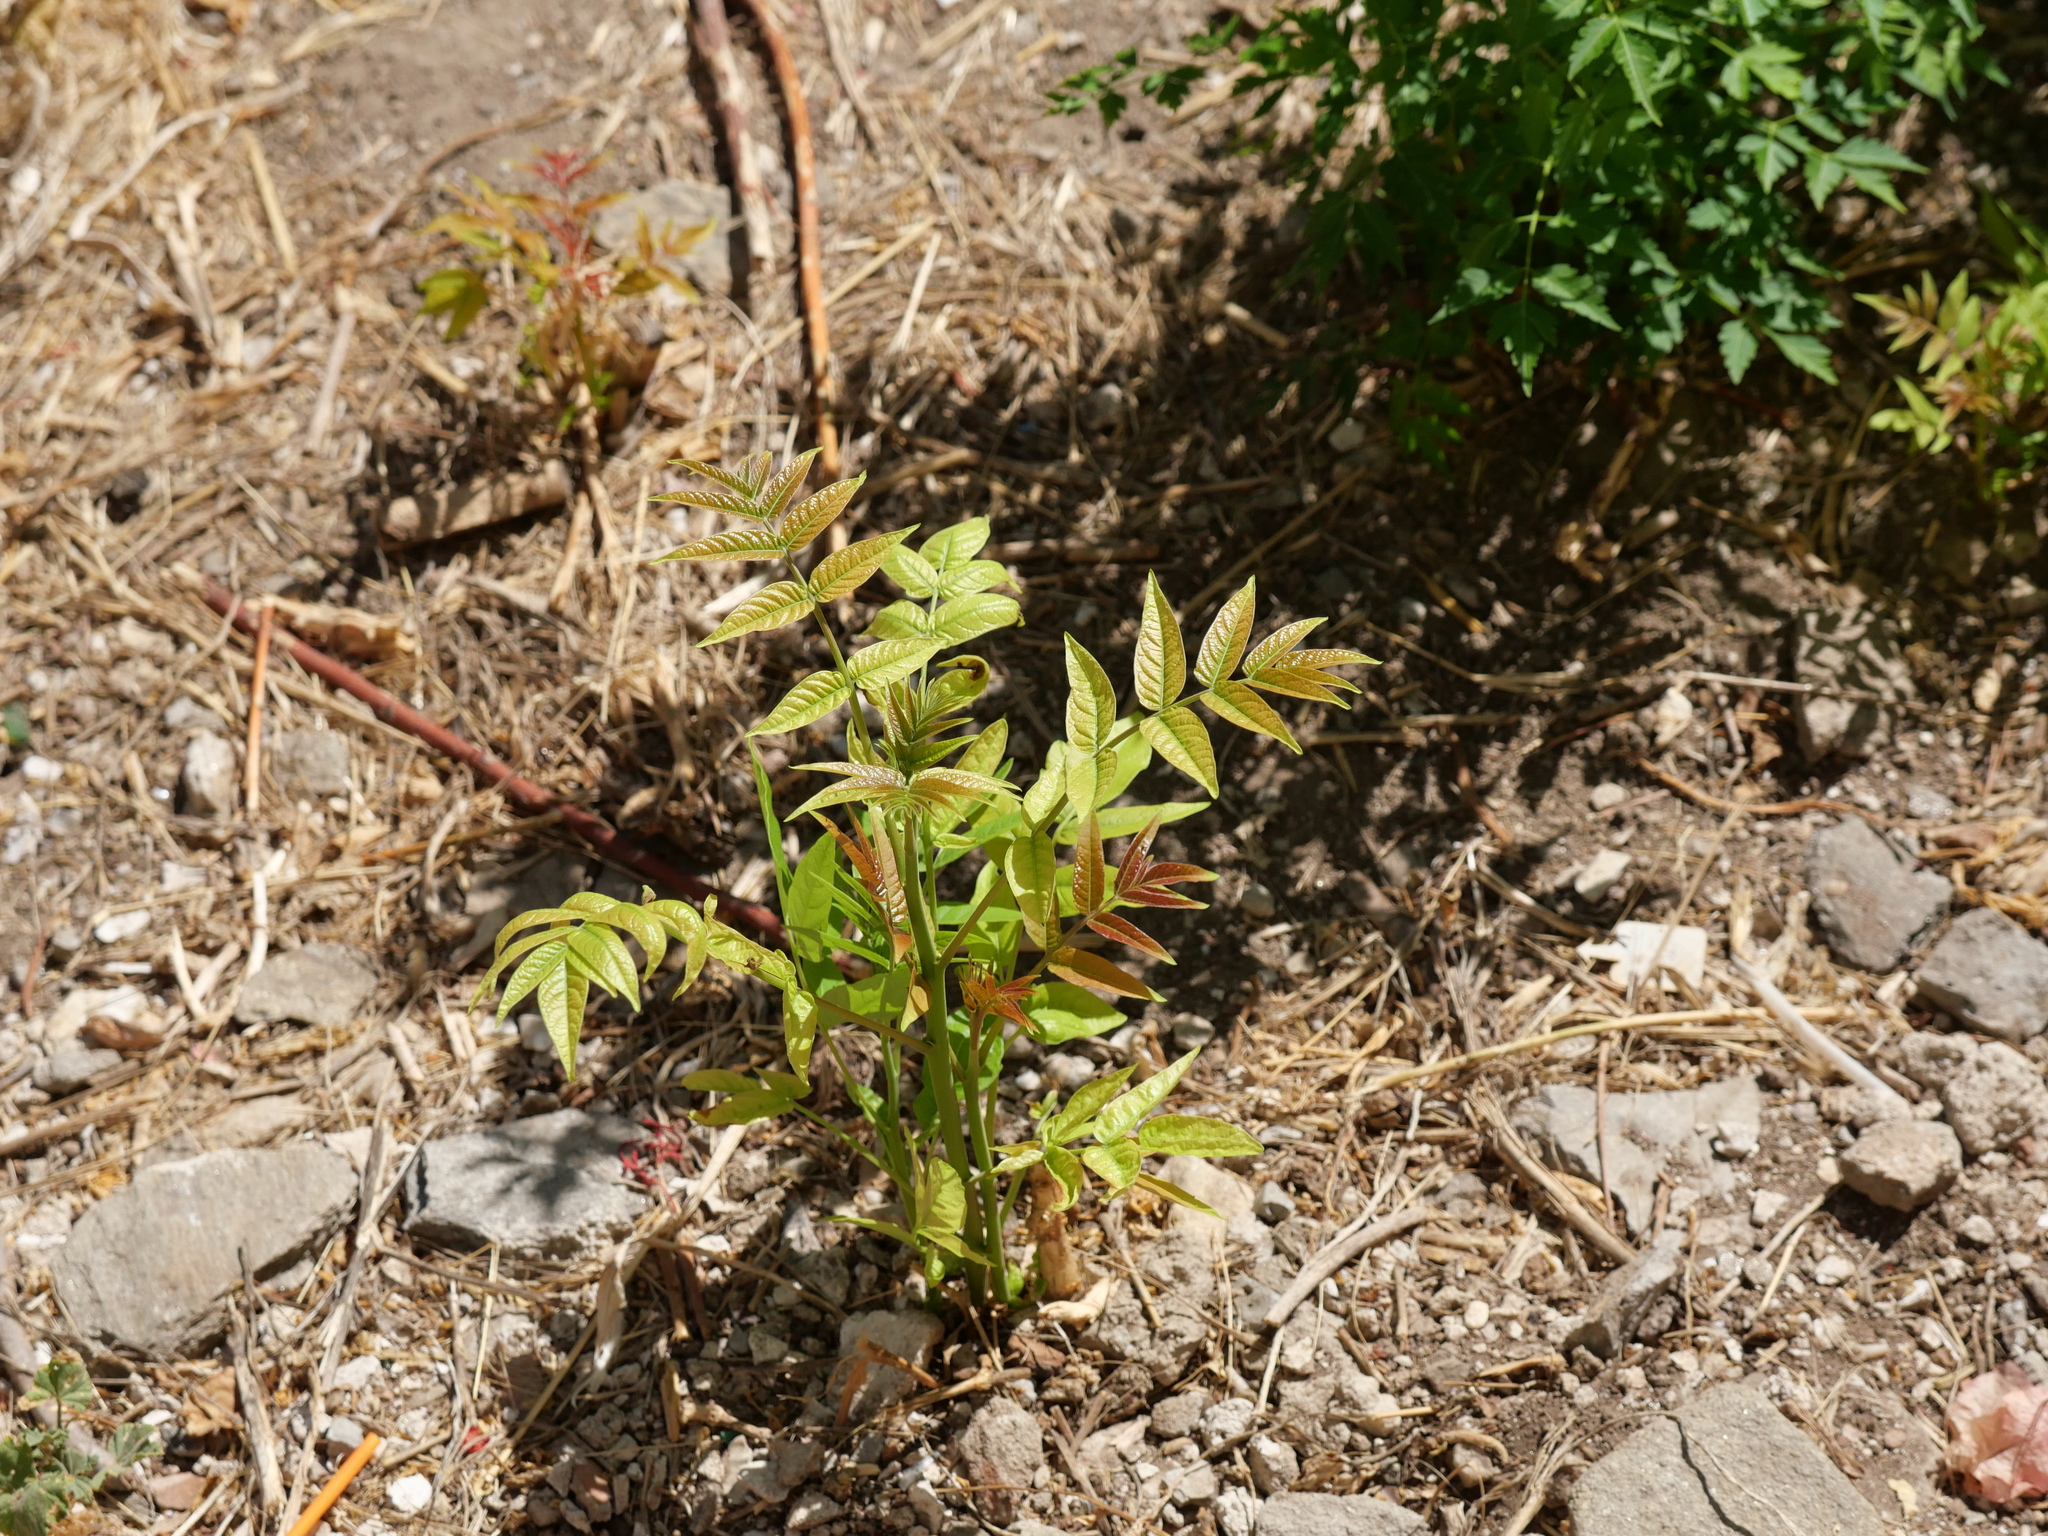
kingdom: Plantae
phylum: Tracheophyta
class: Magnoliopsida
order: Sapindales
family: Simaroubaceae
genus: Ailanthus
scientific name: Ailanthus altissima
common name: Tree-of-heaven
